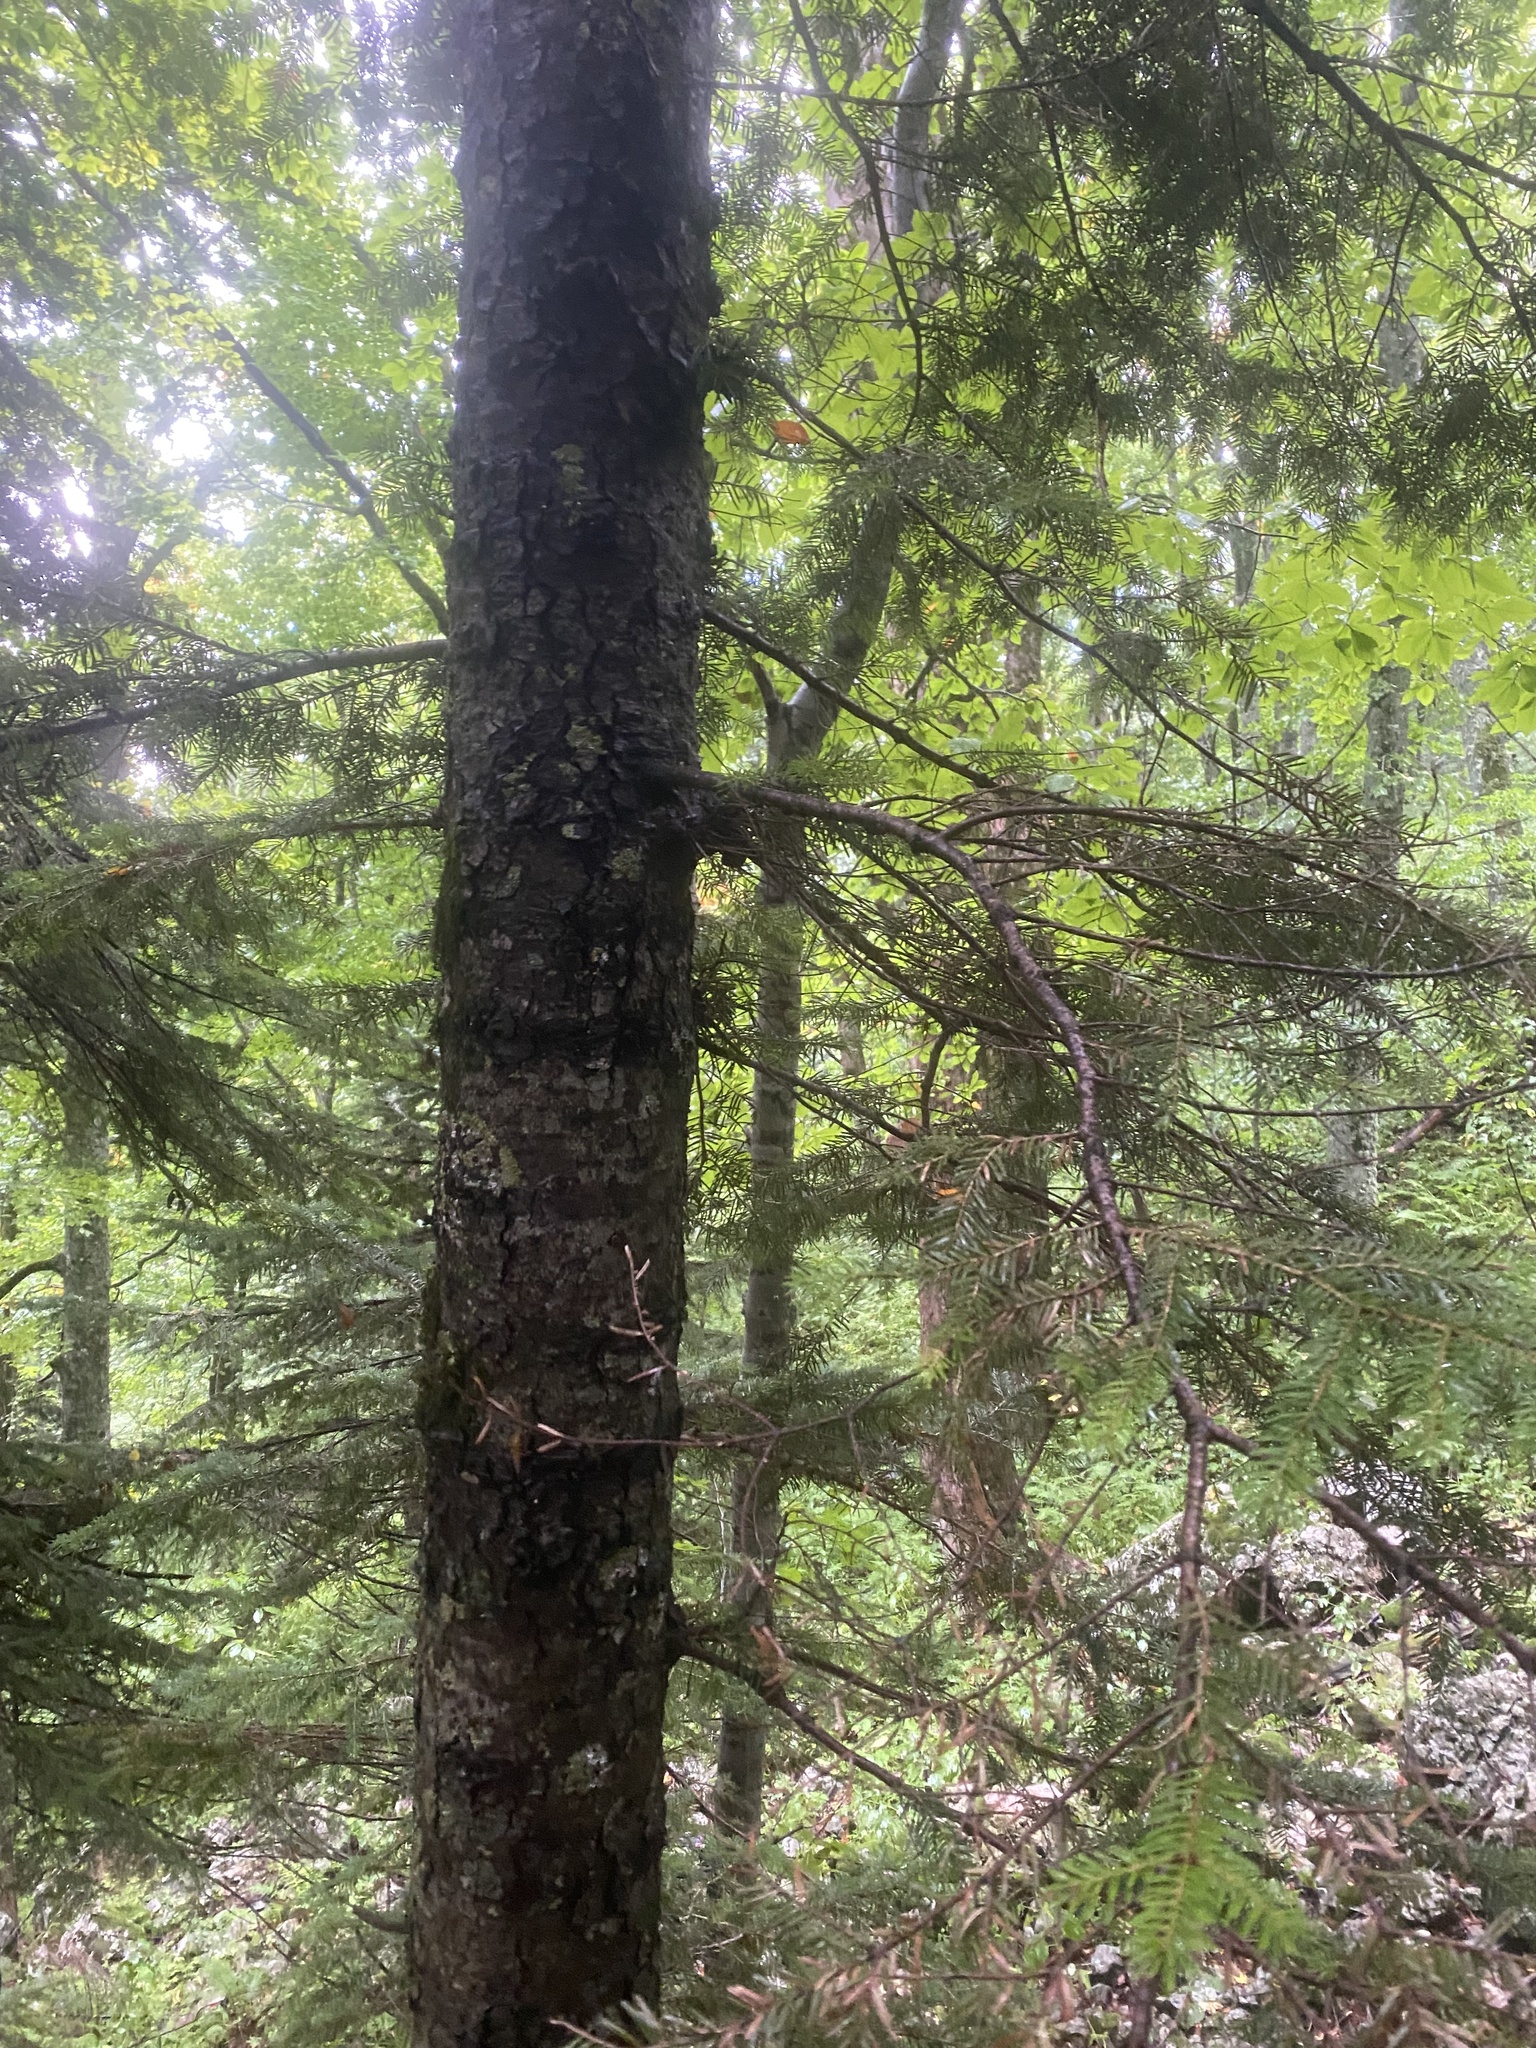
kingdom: Plantae
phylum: Tracheophyta
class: Pinopsida
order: Pinales
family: Pinaceae
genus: Abies
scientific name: Abies nordmanniana
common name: Caucasian fir
